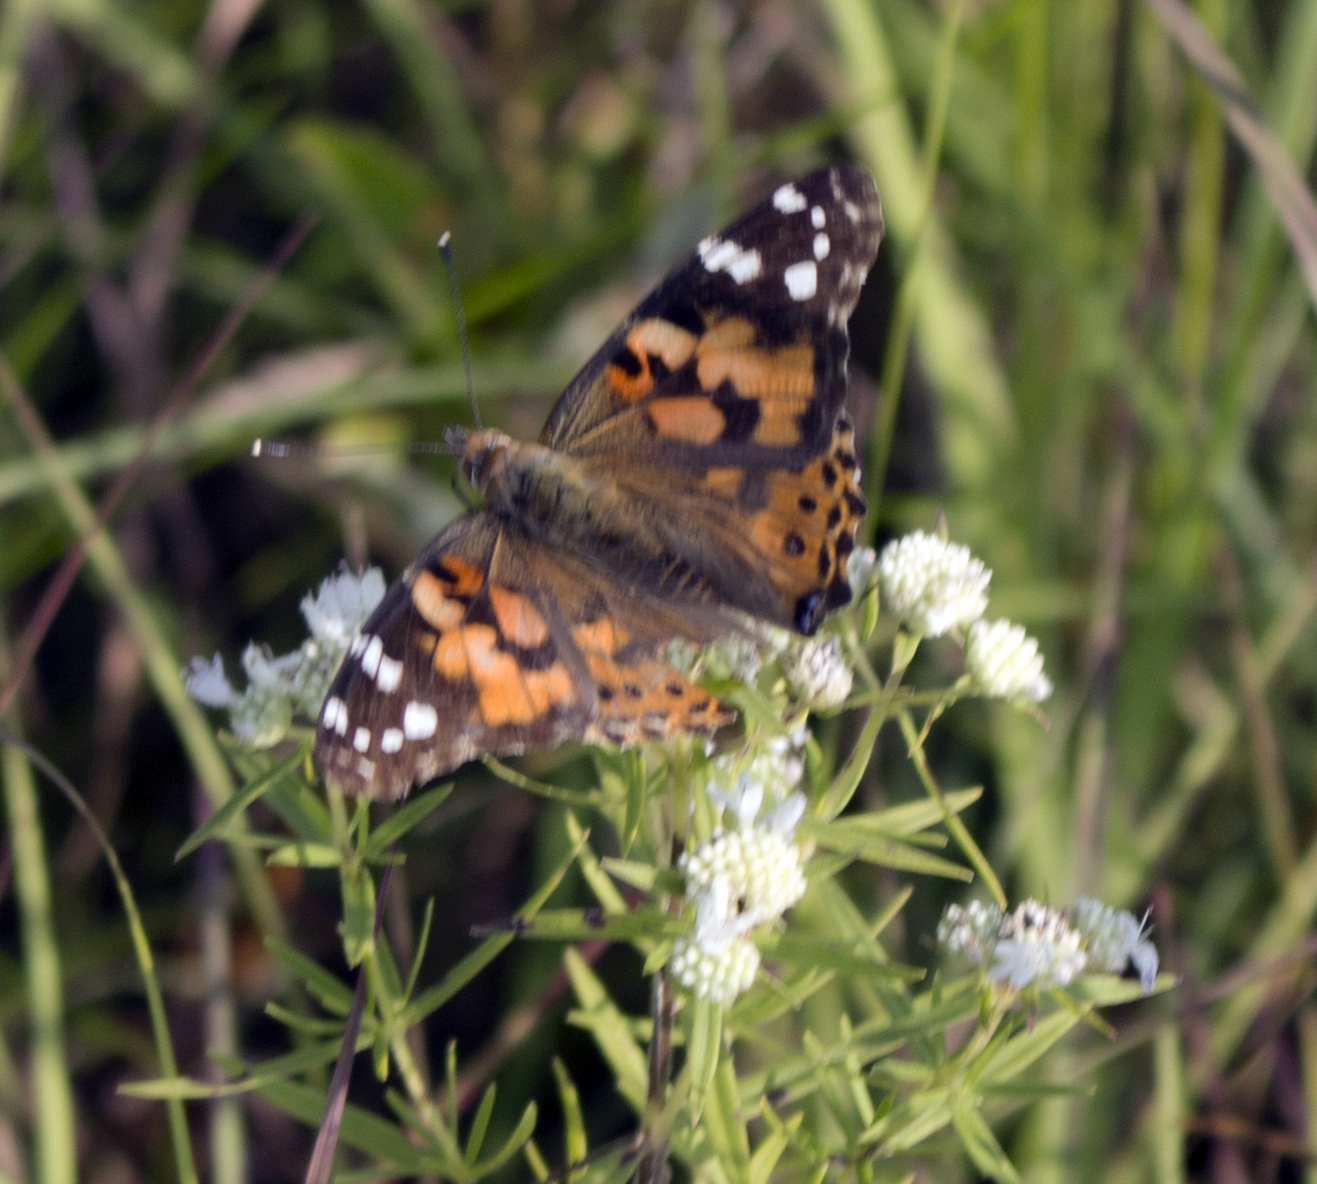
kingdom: Animalia
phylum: Arthropoda
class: Insecta
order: Lepidoptera
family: Nymphalidae
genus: Vanessa
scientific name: Vanessa cardui
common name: Painted lady
